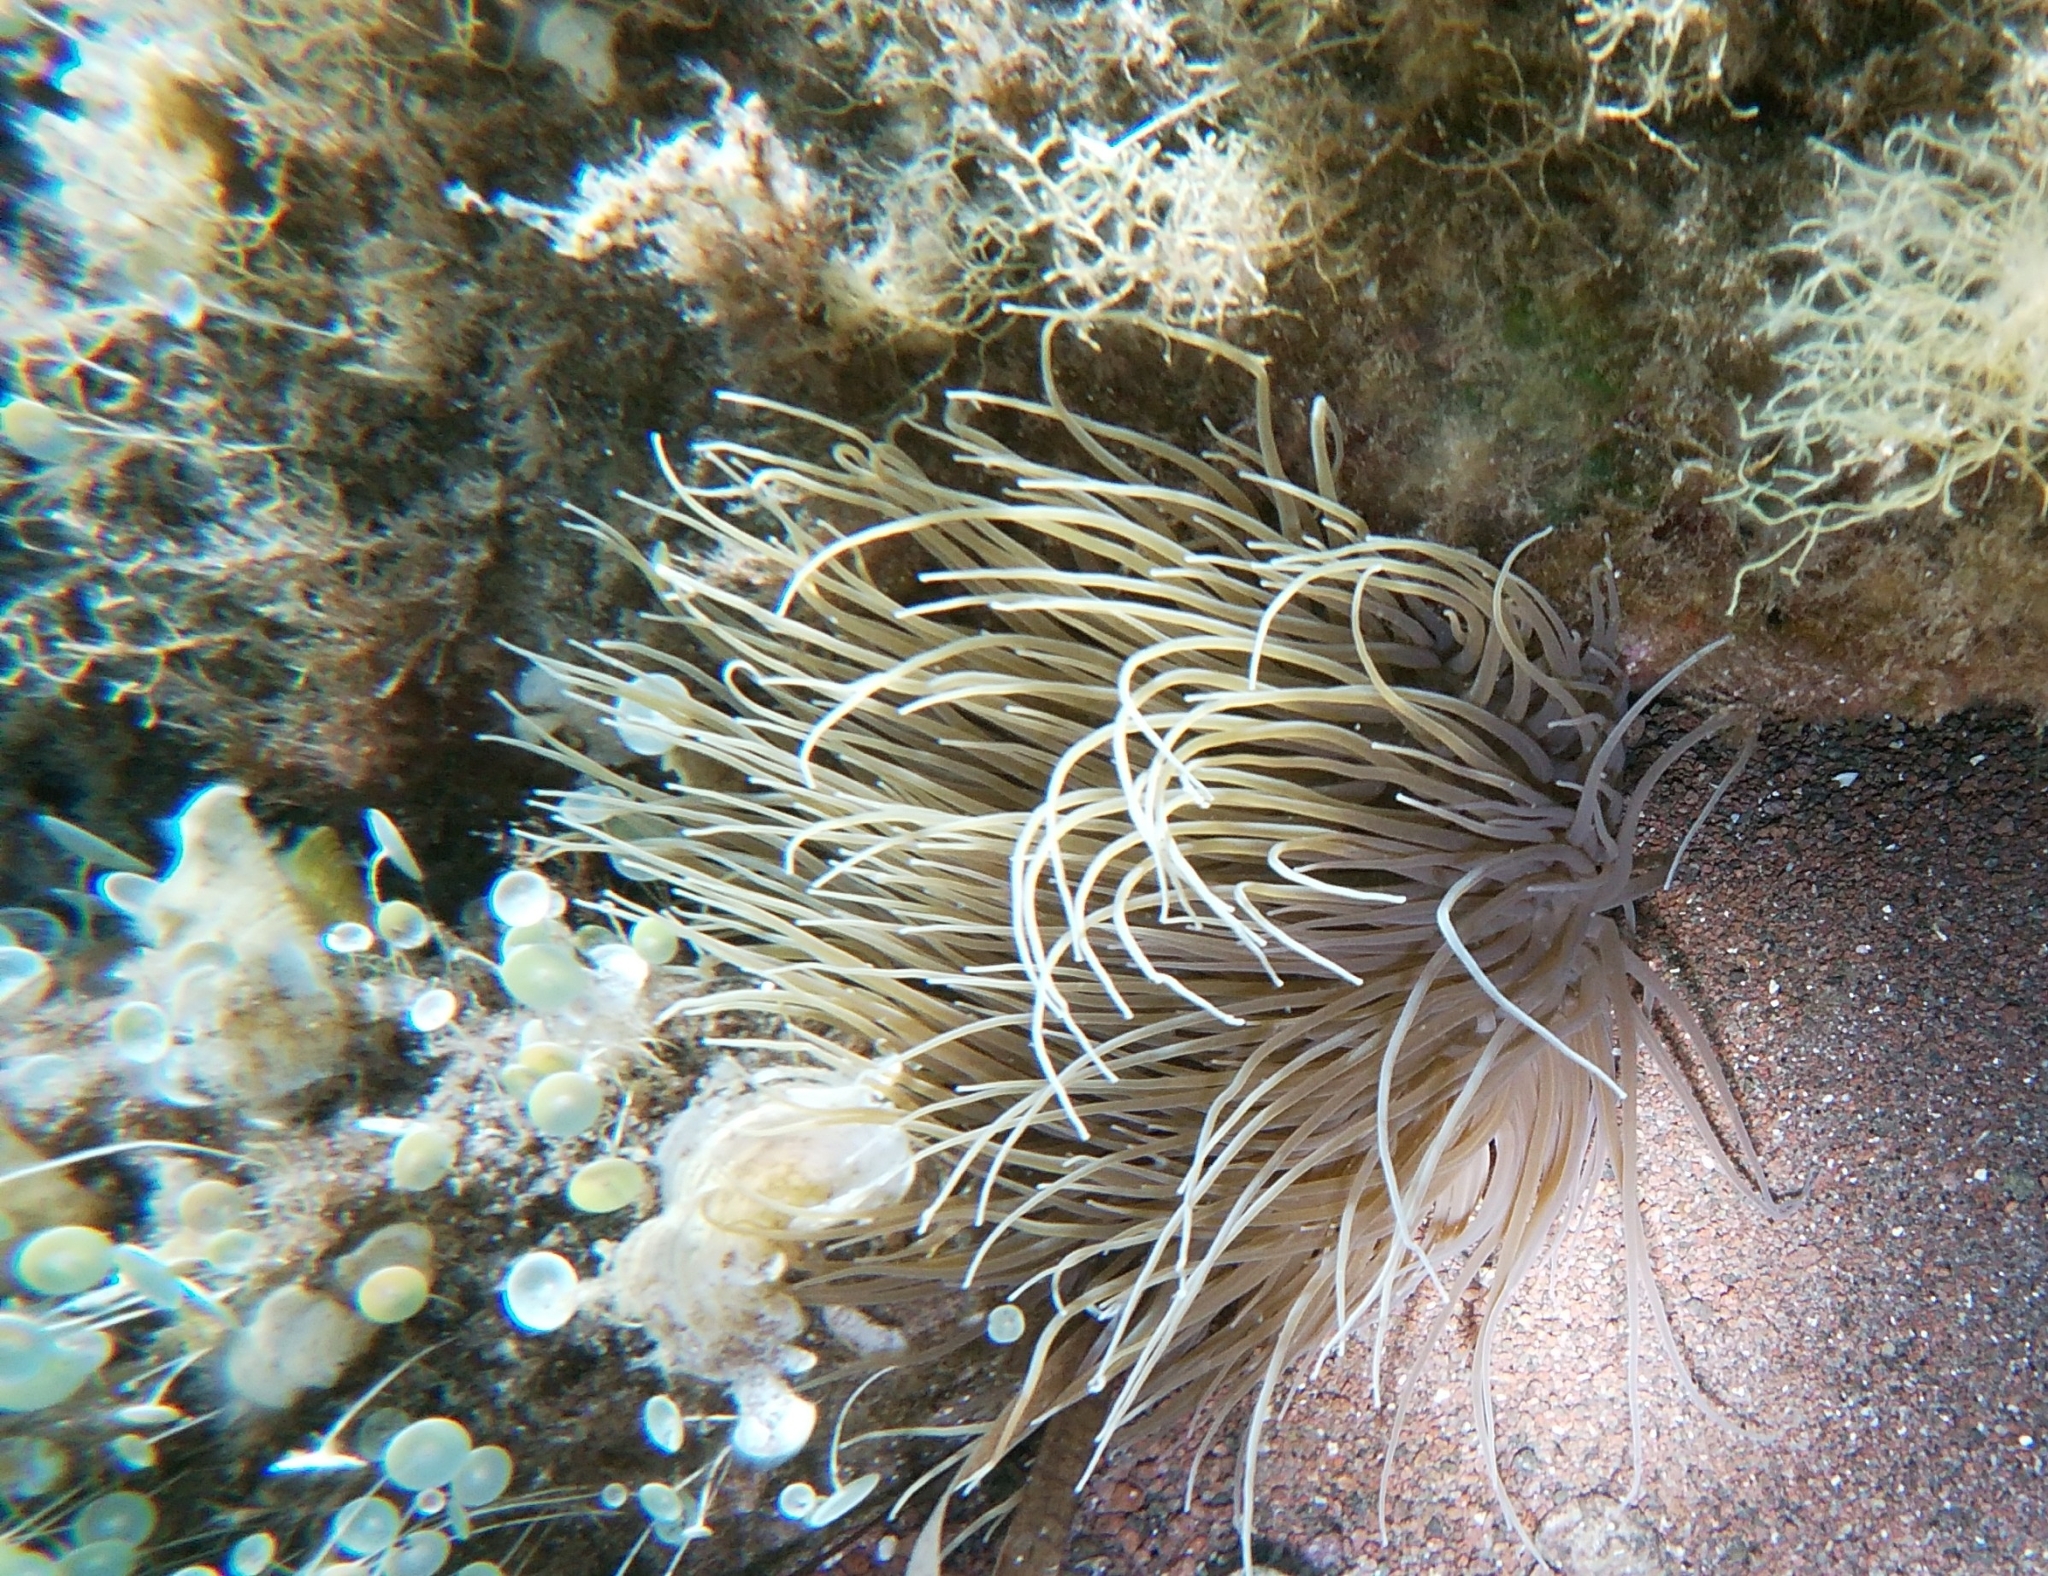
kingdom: Animalia
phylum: Cnidaria
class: Anthozoa
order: Actiniaria
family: Actiniidae
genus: Anemonia
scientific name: Anemonia viridis
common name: Snakelocks anemone
